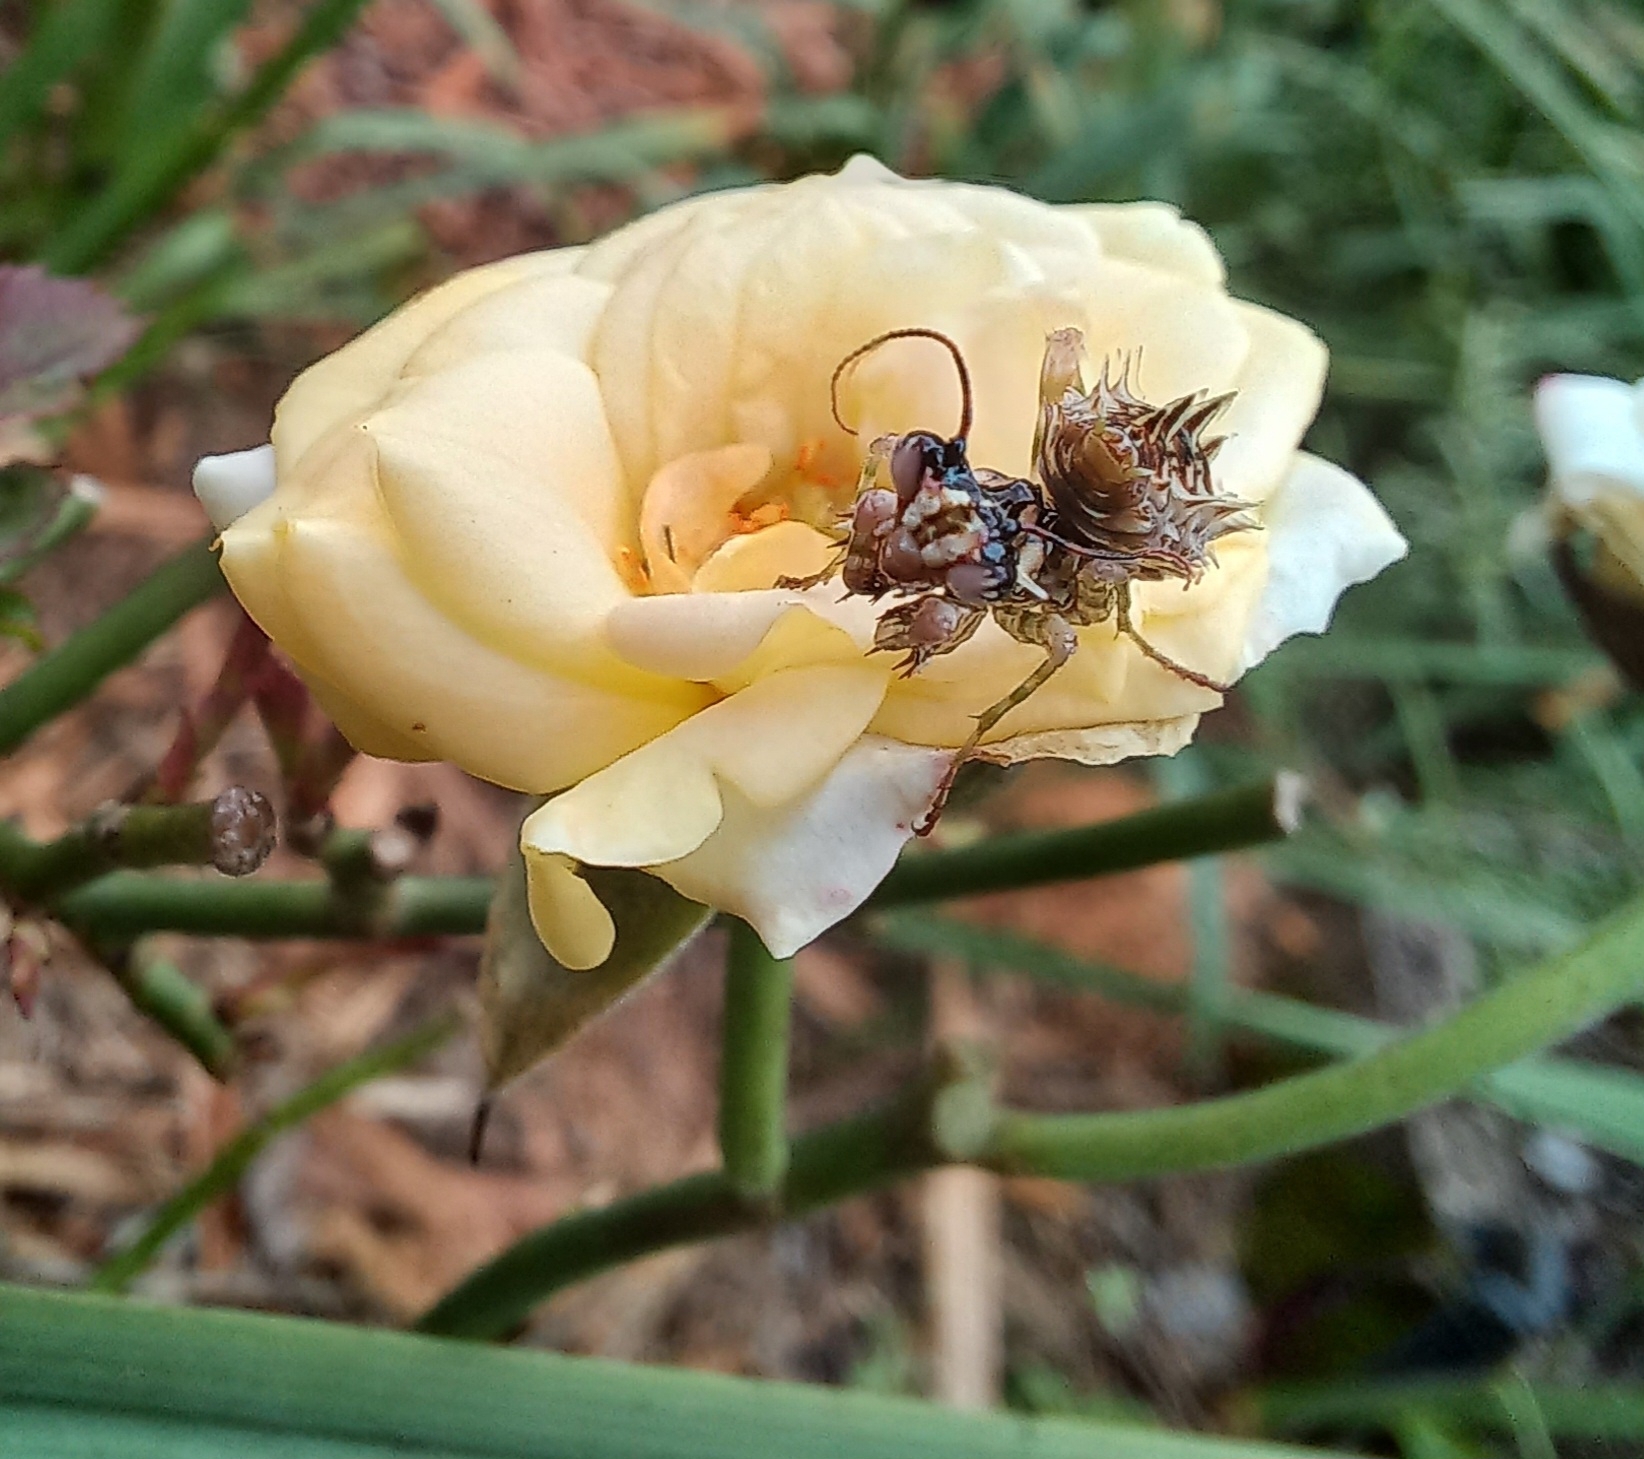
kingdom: Animalia
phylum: Arthropoda
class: Insecta
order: Mantodea
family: Hymenopodidae
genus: Pseudocreobotra
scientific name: Pseudocreobotra wahlbergi
